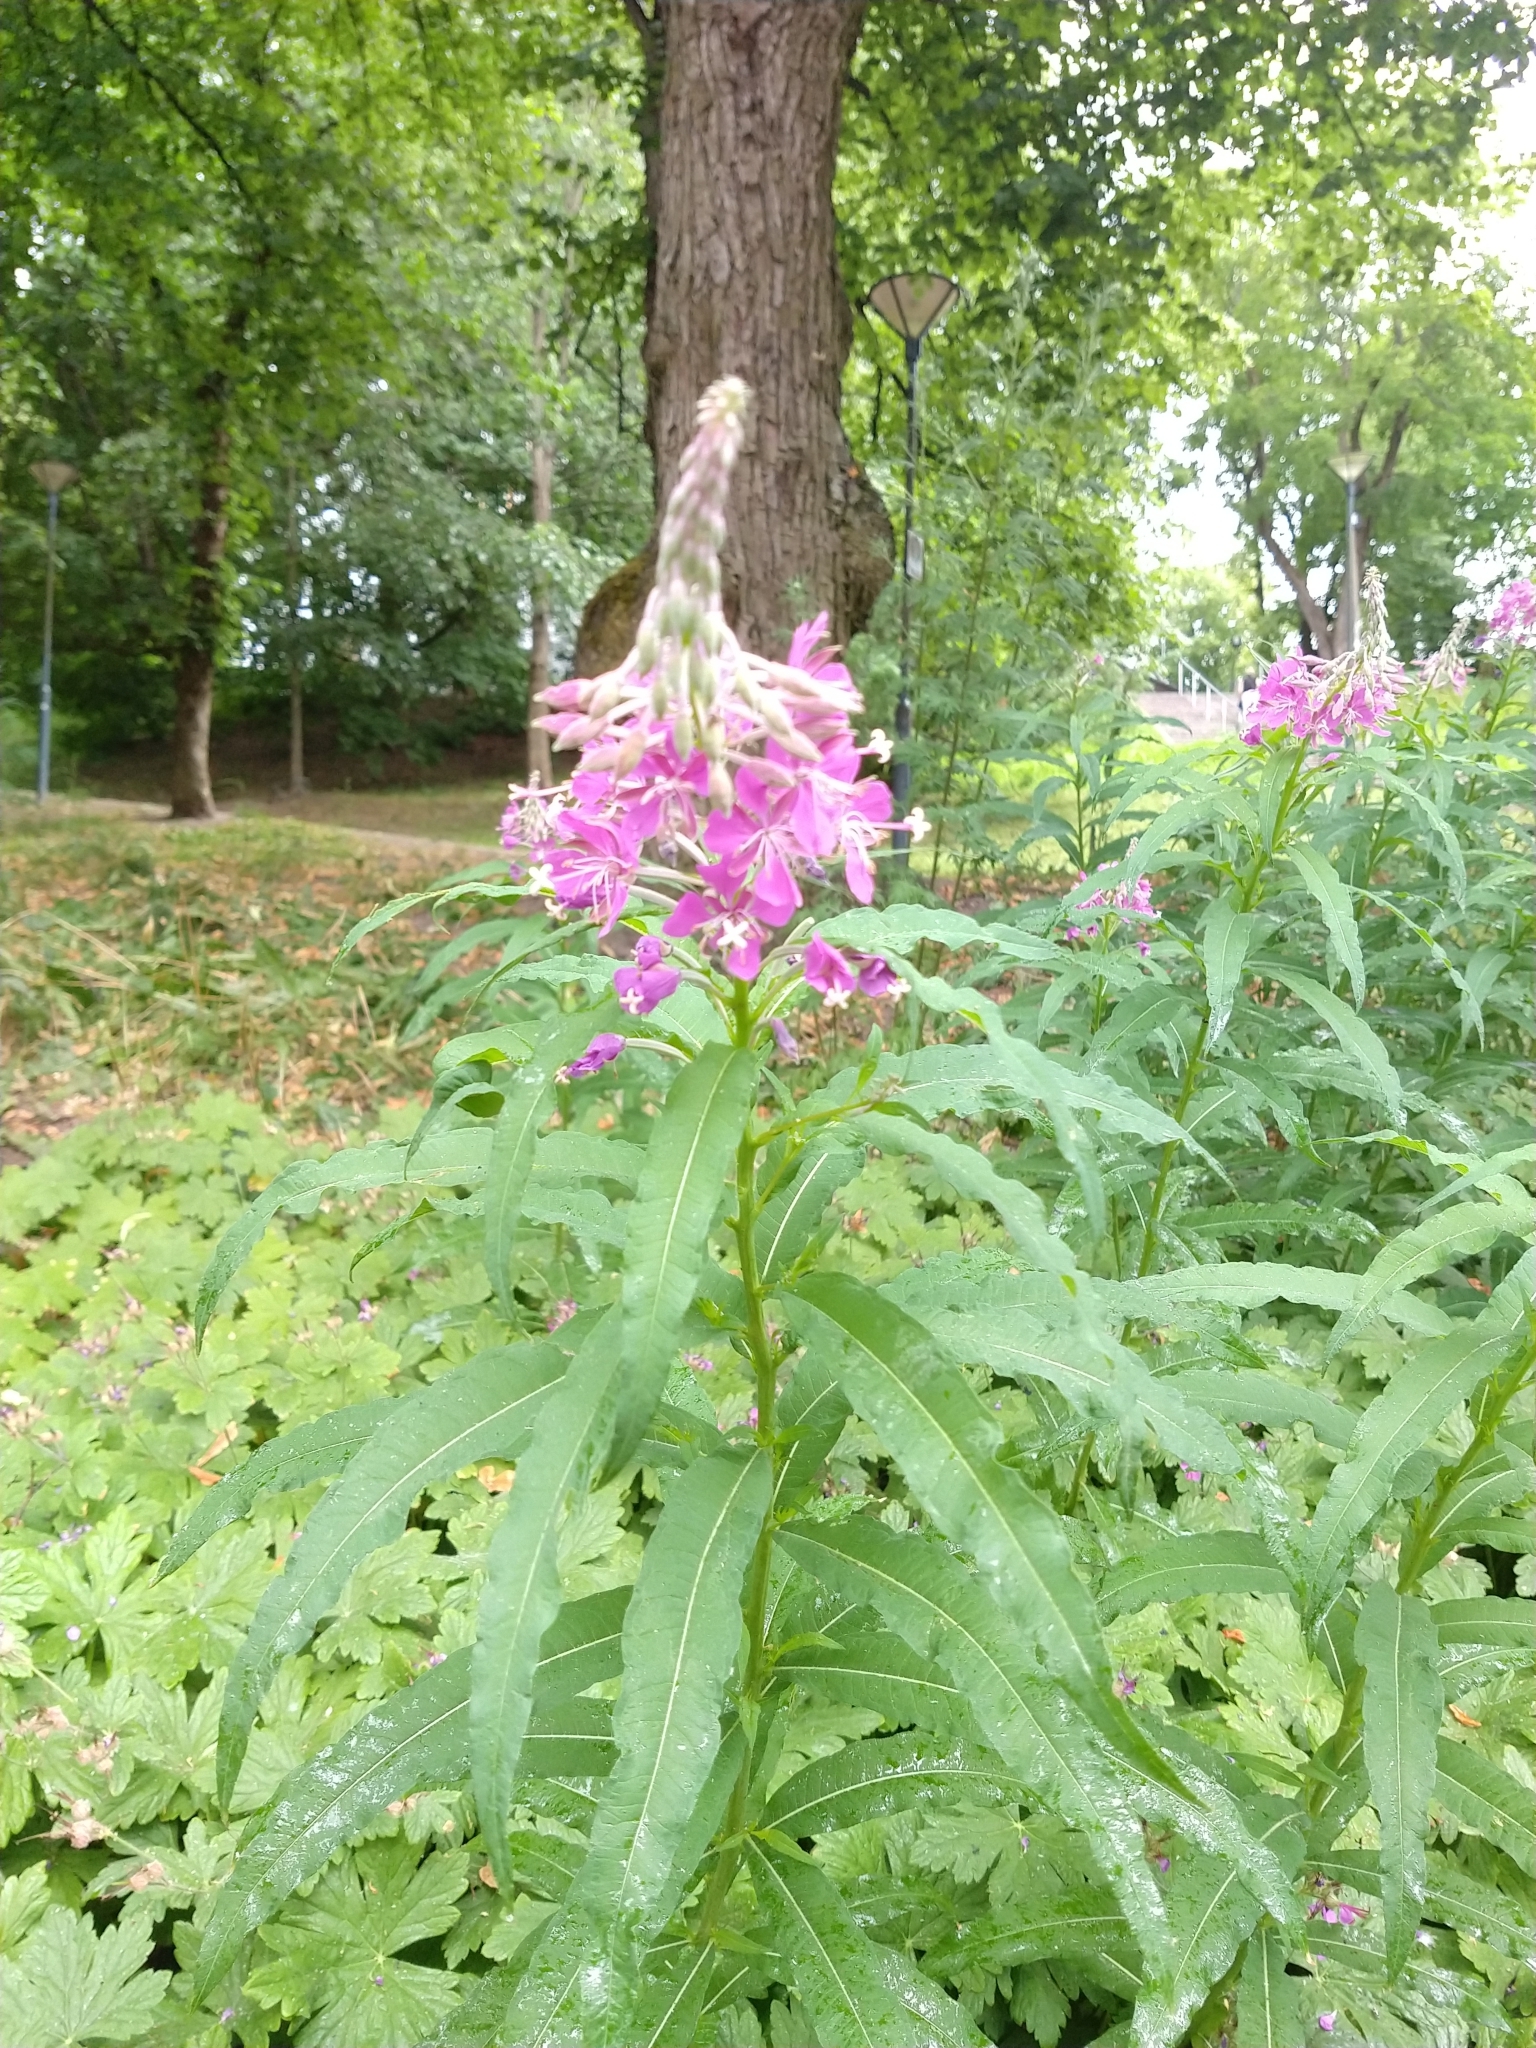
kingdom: Plantae
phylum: Tracheophyta
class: Magnoliopsida
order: Myrtales
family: Onagraceae
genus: Chamaenerion
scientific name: Chamaenerion angustifolium
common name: Fireweed
